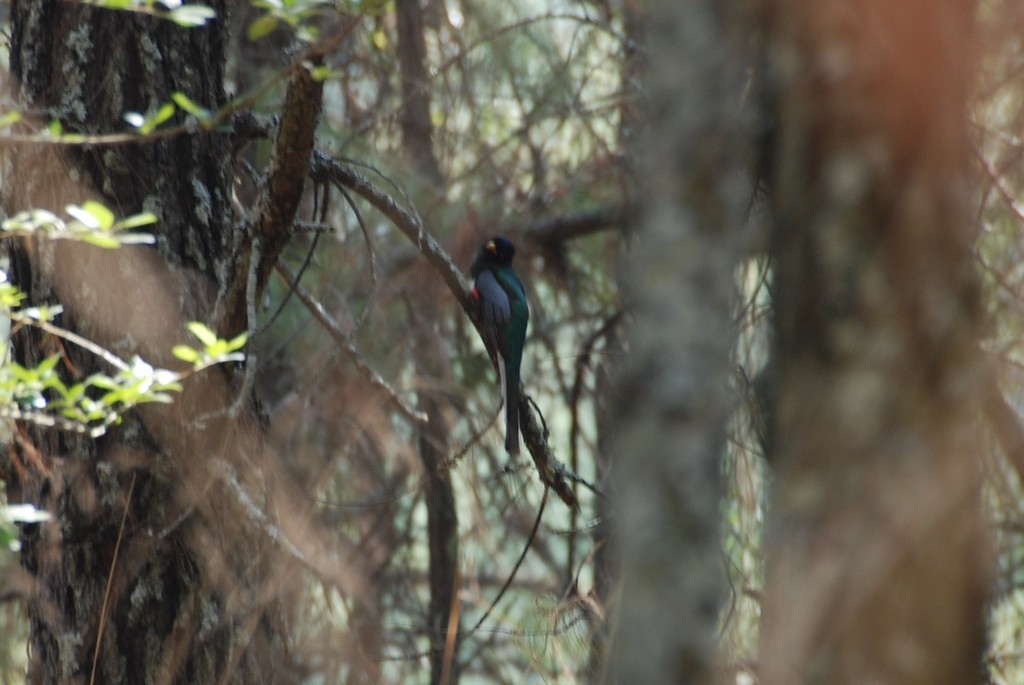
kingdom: Animalia
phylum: Chordata
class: Aves
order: Trogoniformes
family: Trogonidae
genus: Trogon
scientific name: Trogon elegans
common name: Elegant trogon
